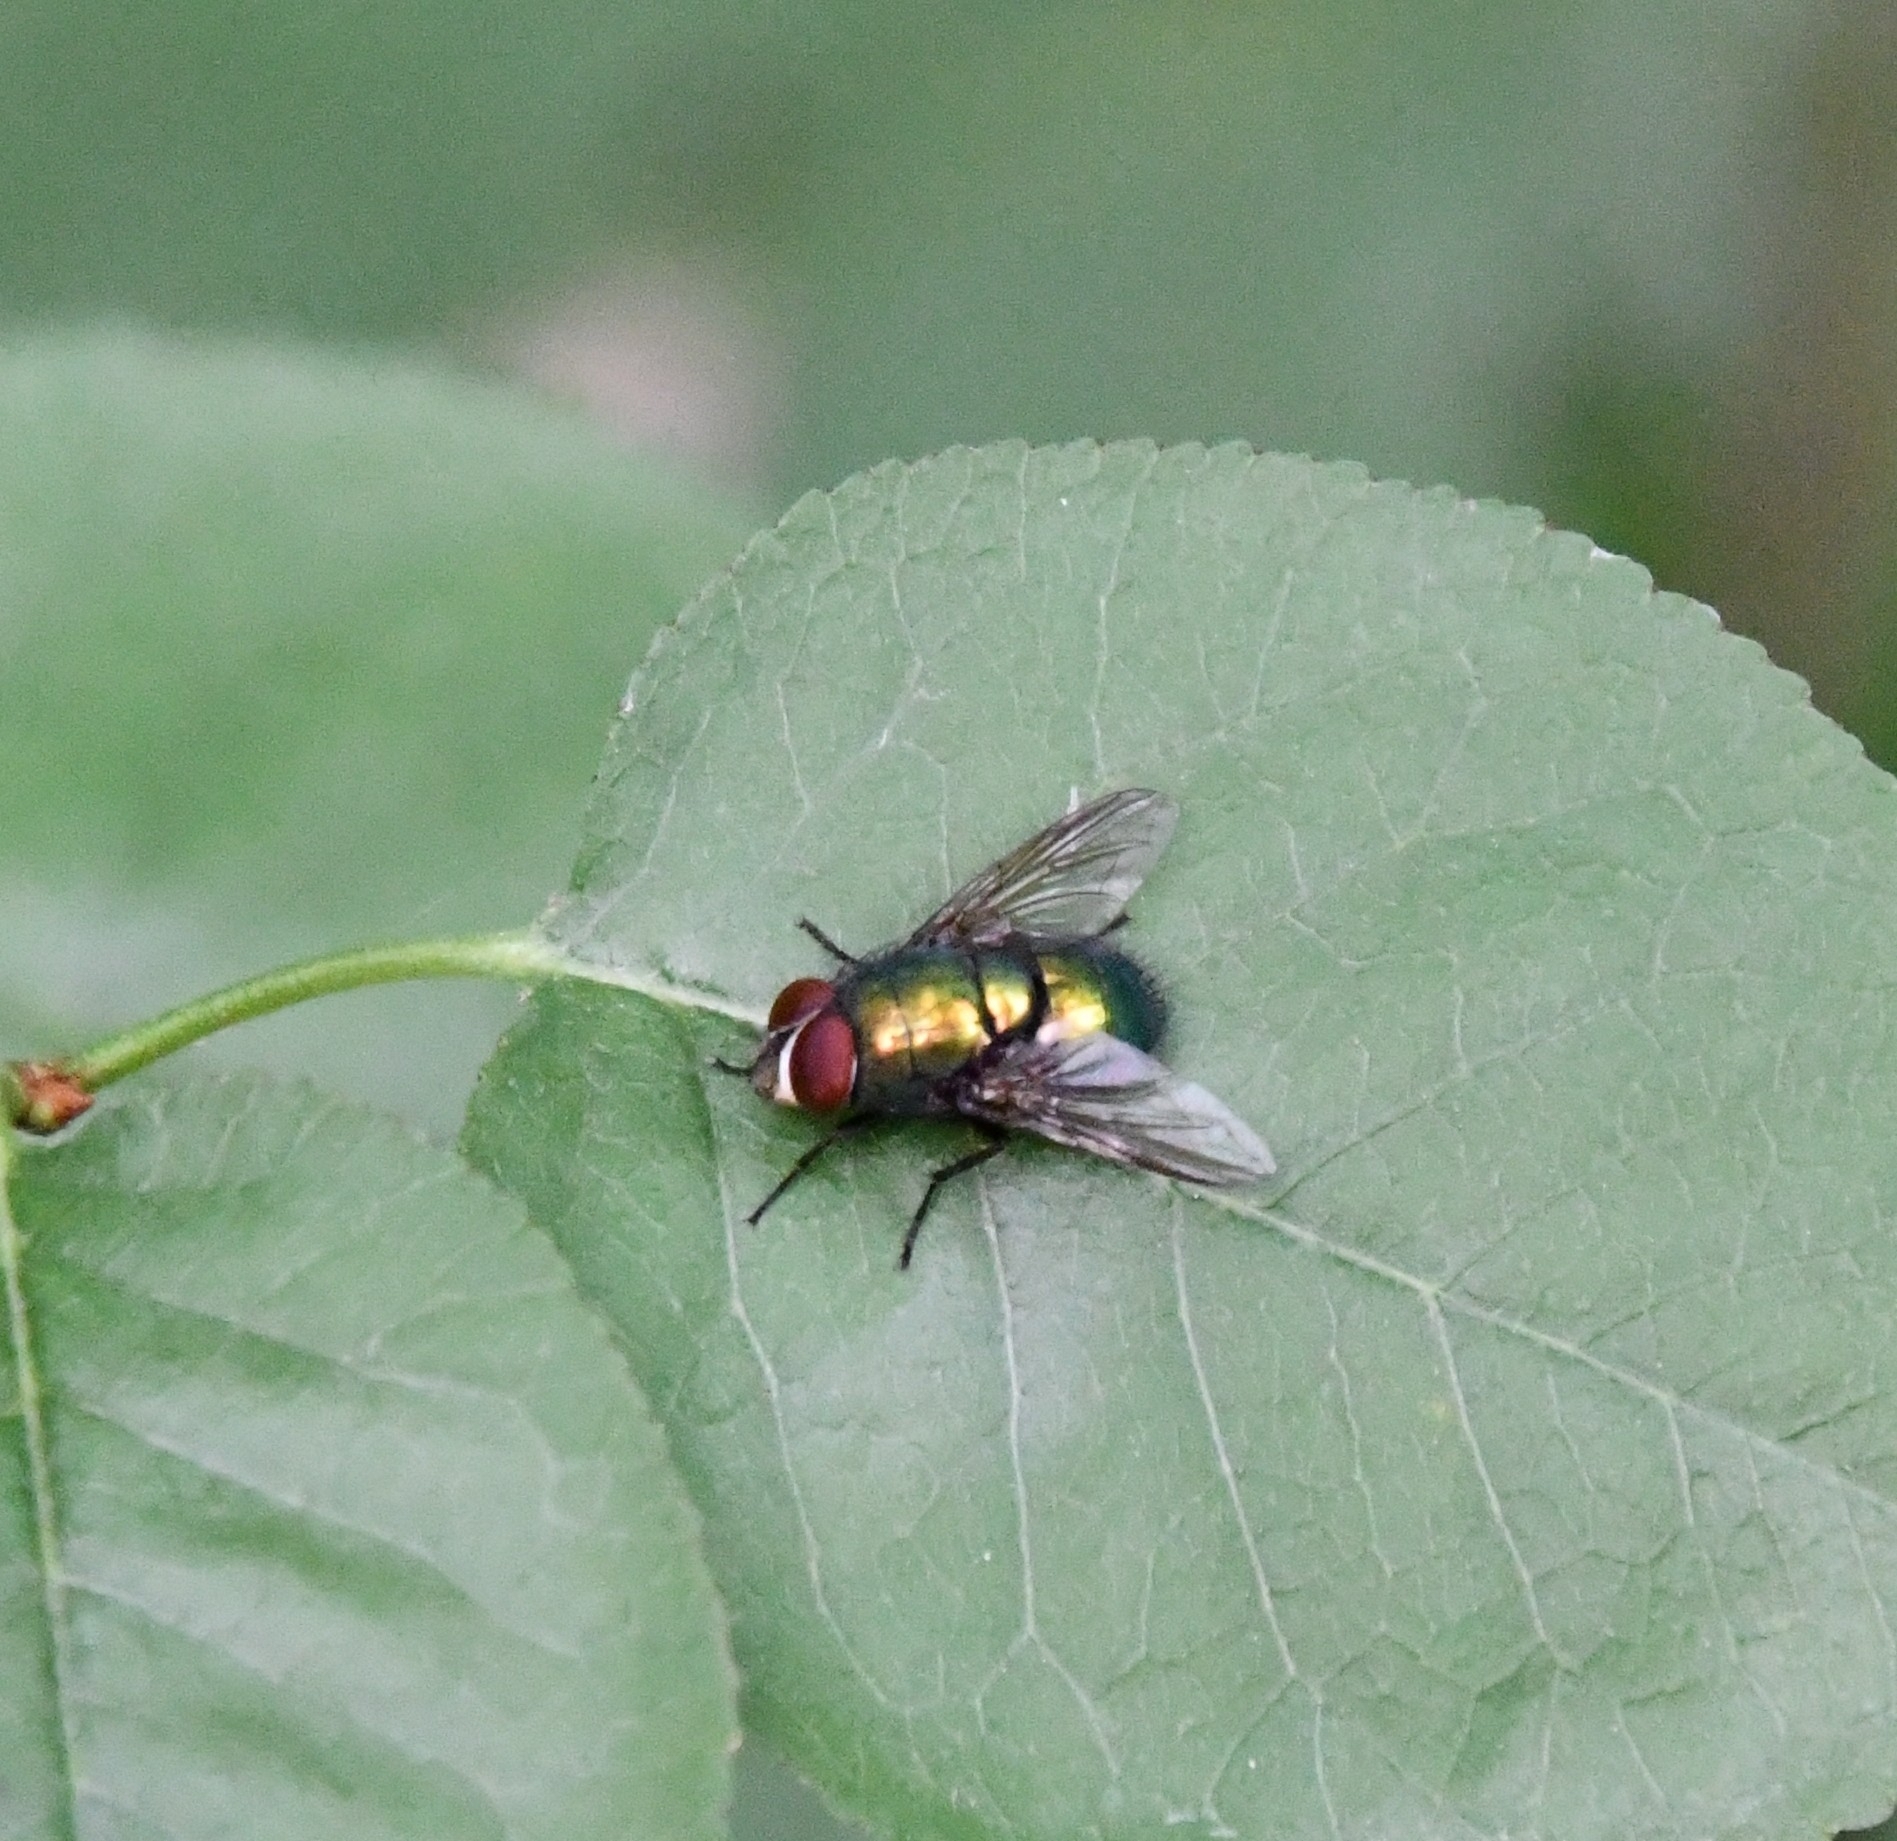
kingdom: Animalia
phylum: Arthropoda
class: Insecta
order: Diptera
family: Calliphoridae
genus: Lucilia
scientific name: Lucilia sericata
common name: Blow fly
